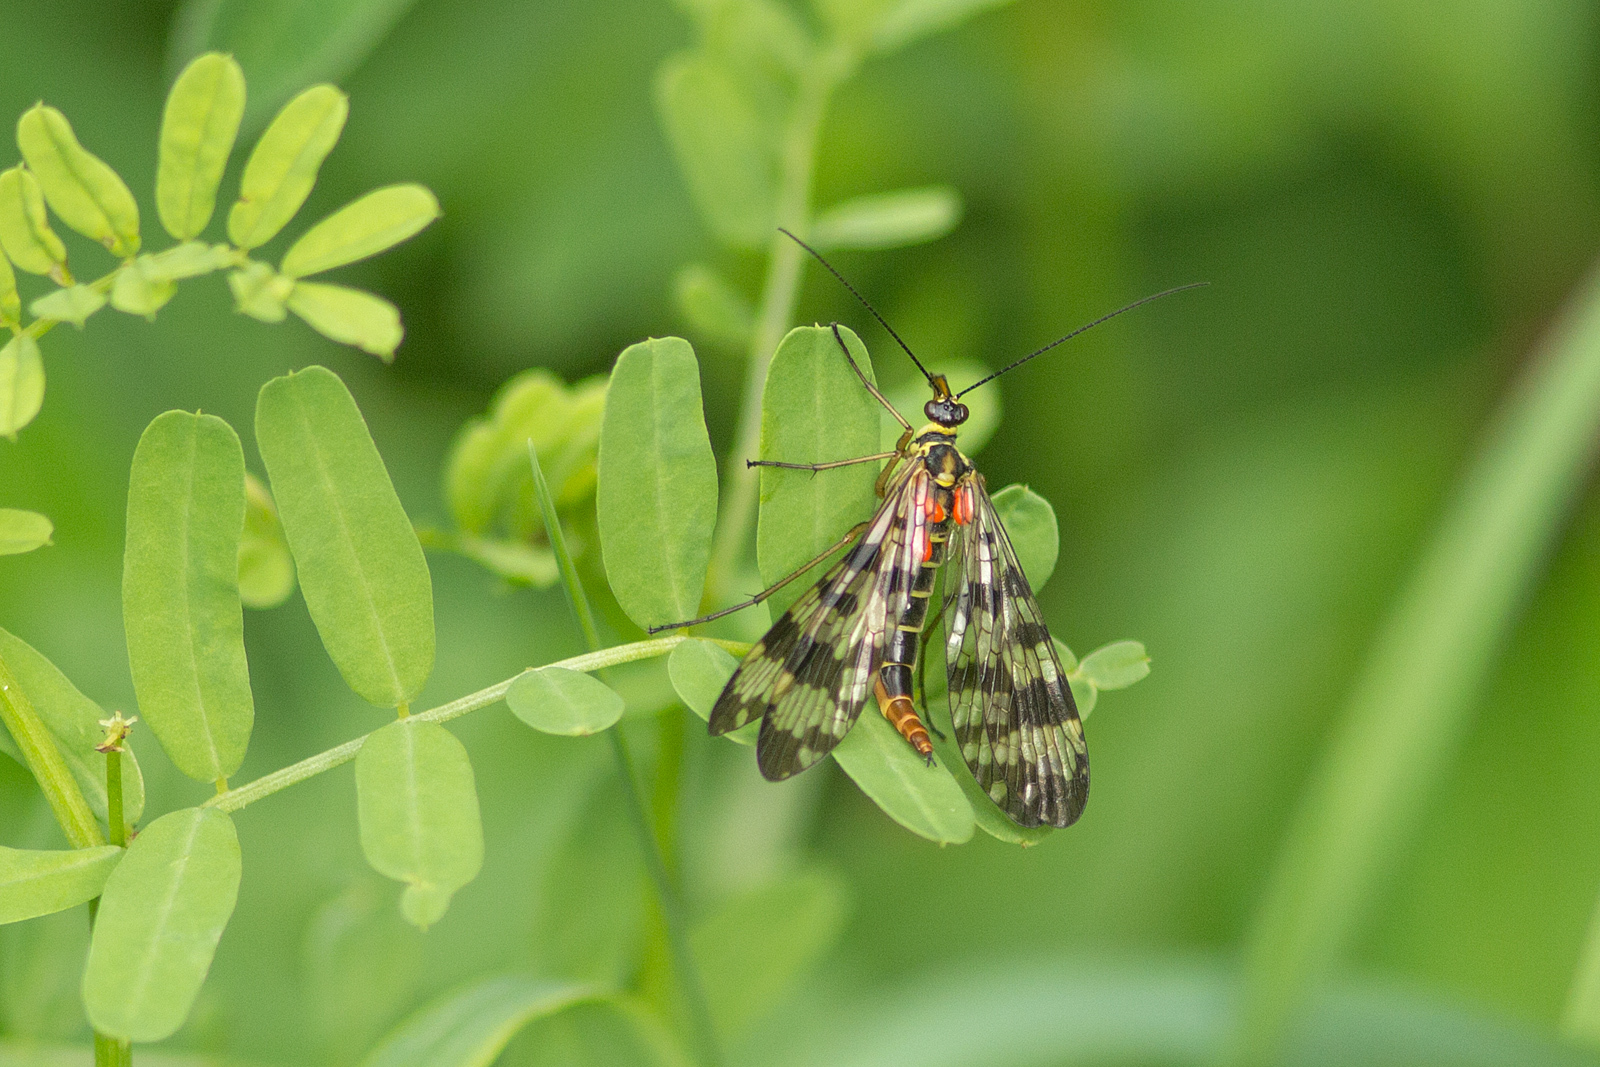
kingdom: Animalia
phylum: Arthropoda
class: Insecta
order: Mecoptera
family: Panorpidae
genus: Panorpa
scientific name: Panorpa communis
